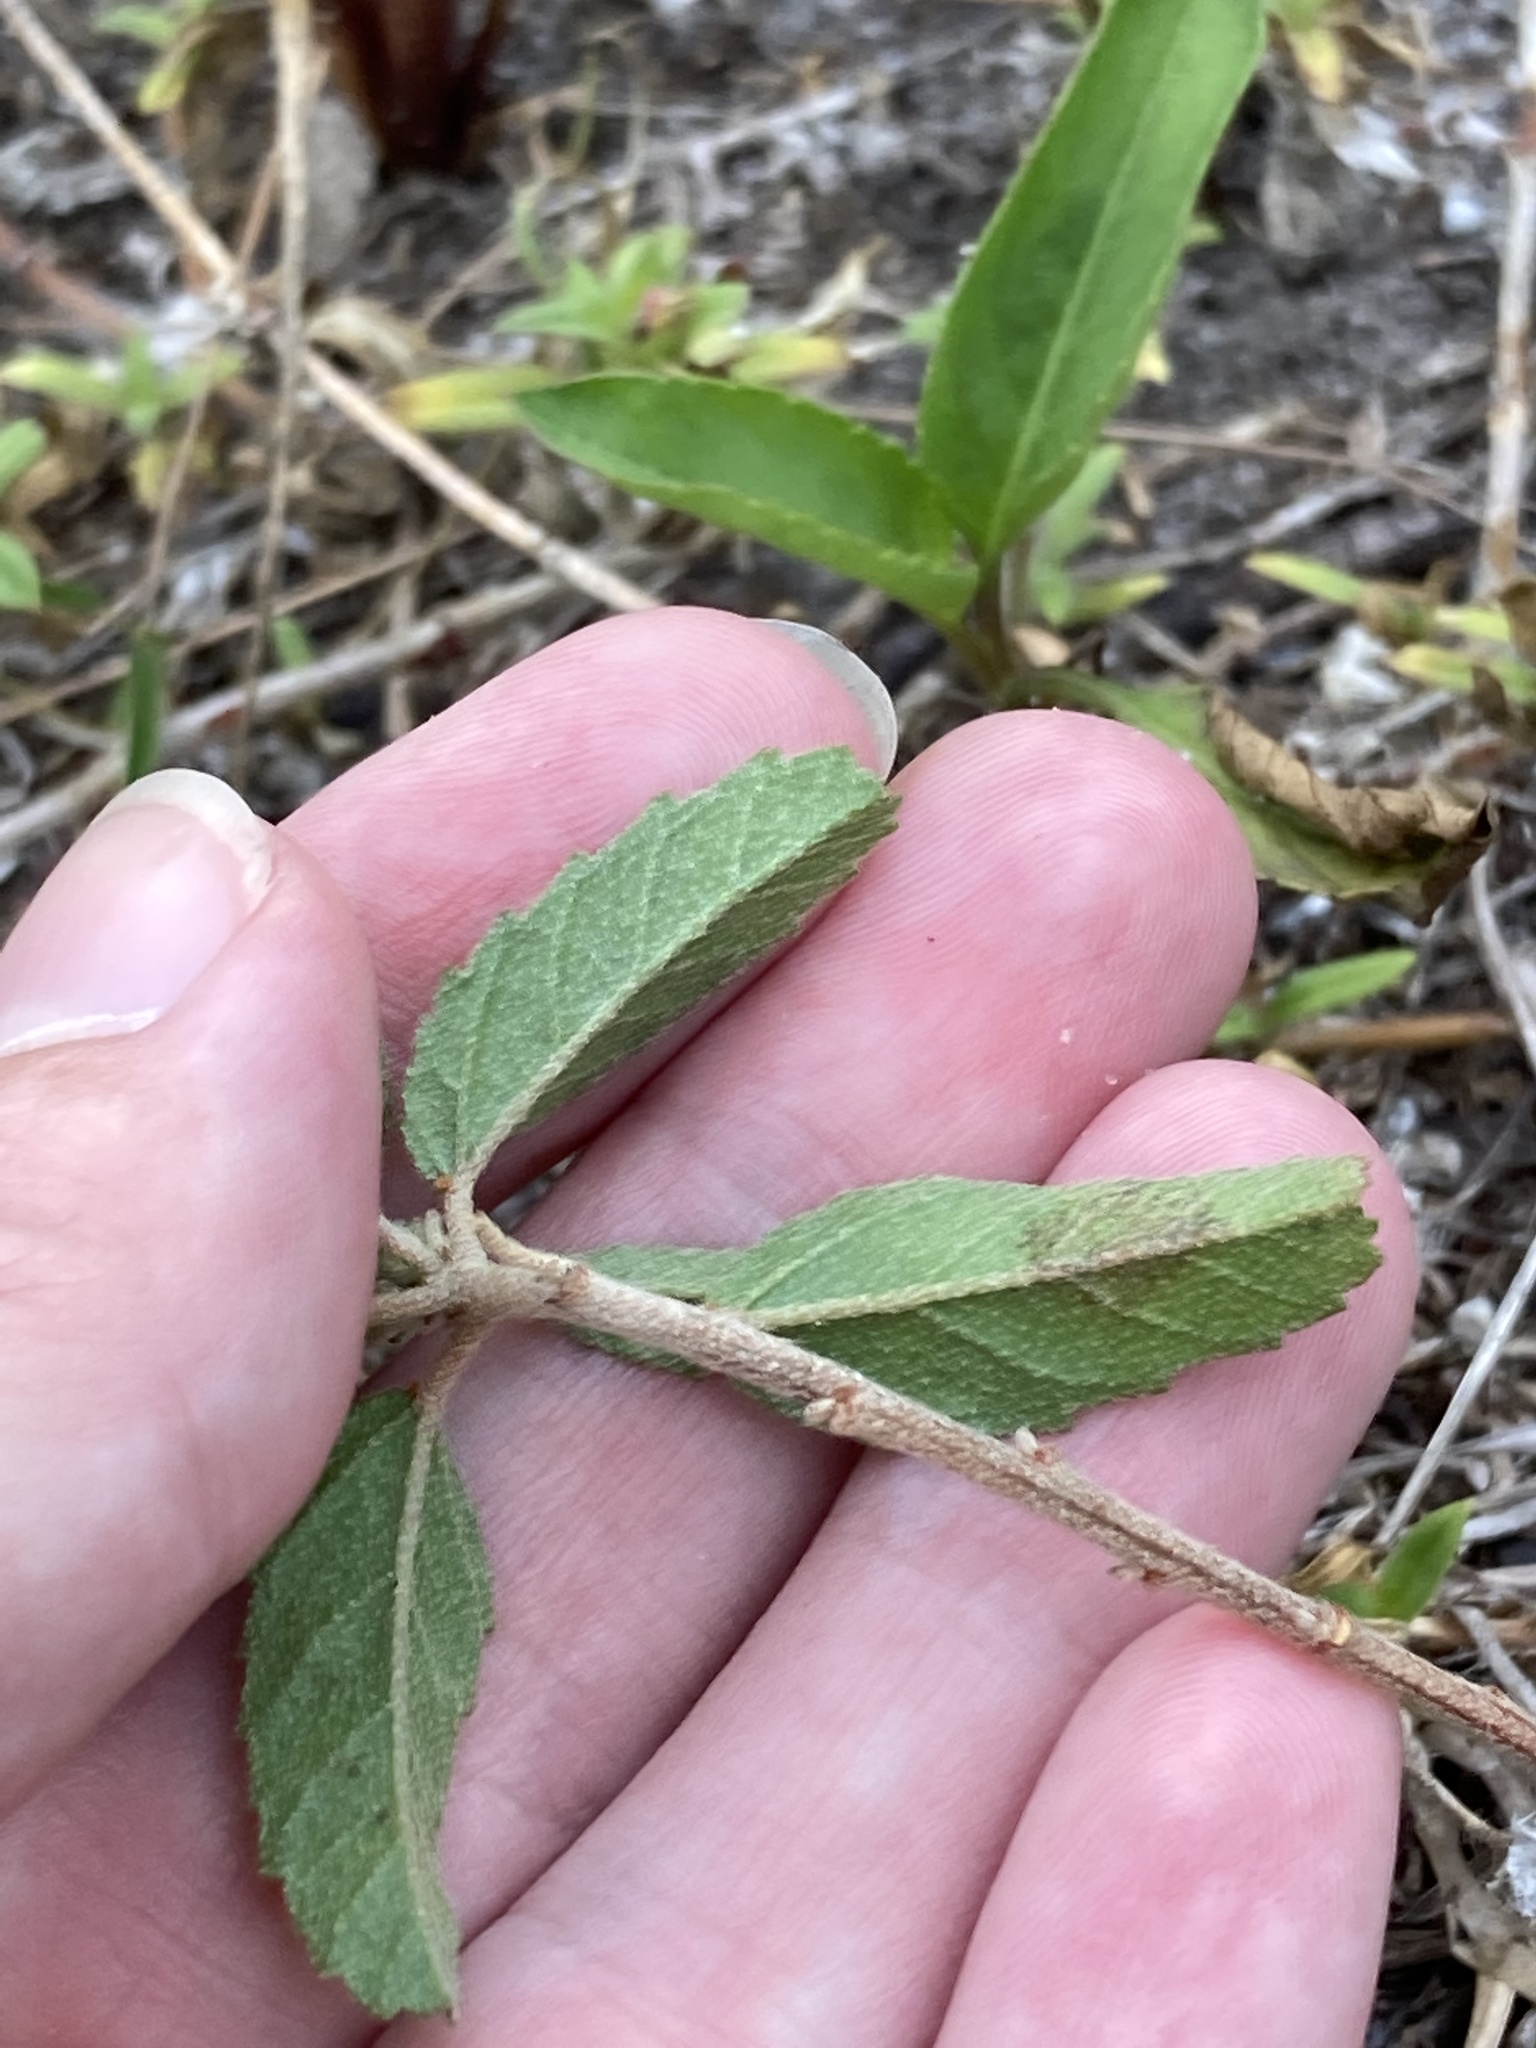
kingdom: Plantae
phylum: Tracheophyta
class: Magnoliopsida
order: Malpighiales
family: Euphorbiaceae
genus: Croton
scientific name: Croton glandulosus
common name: Tropic croton
